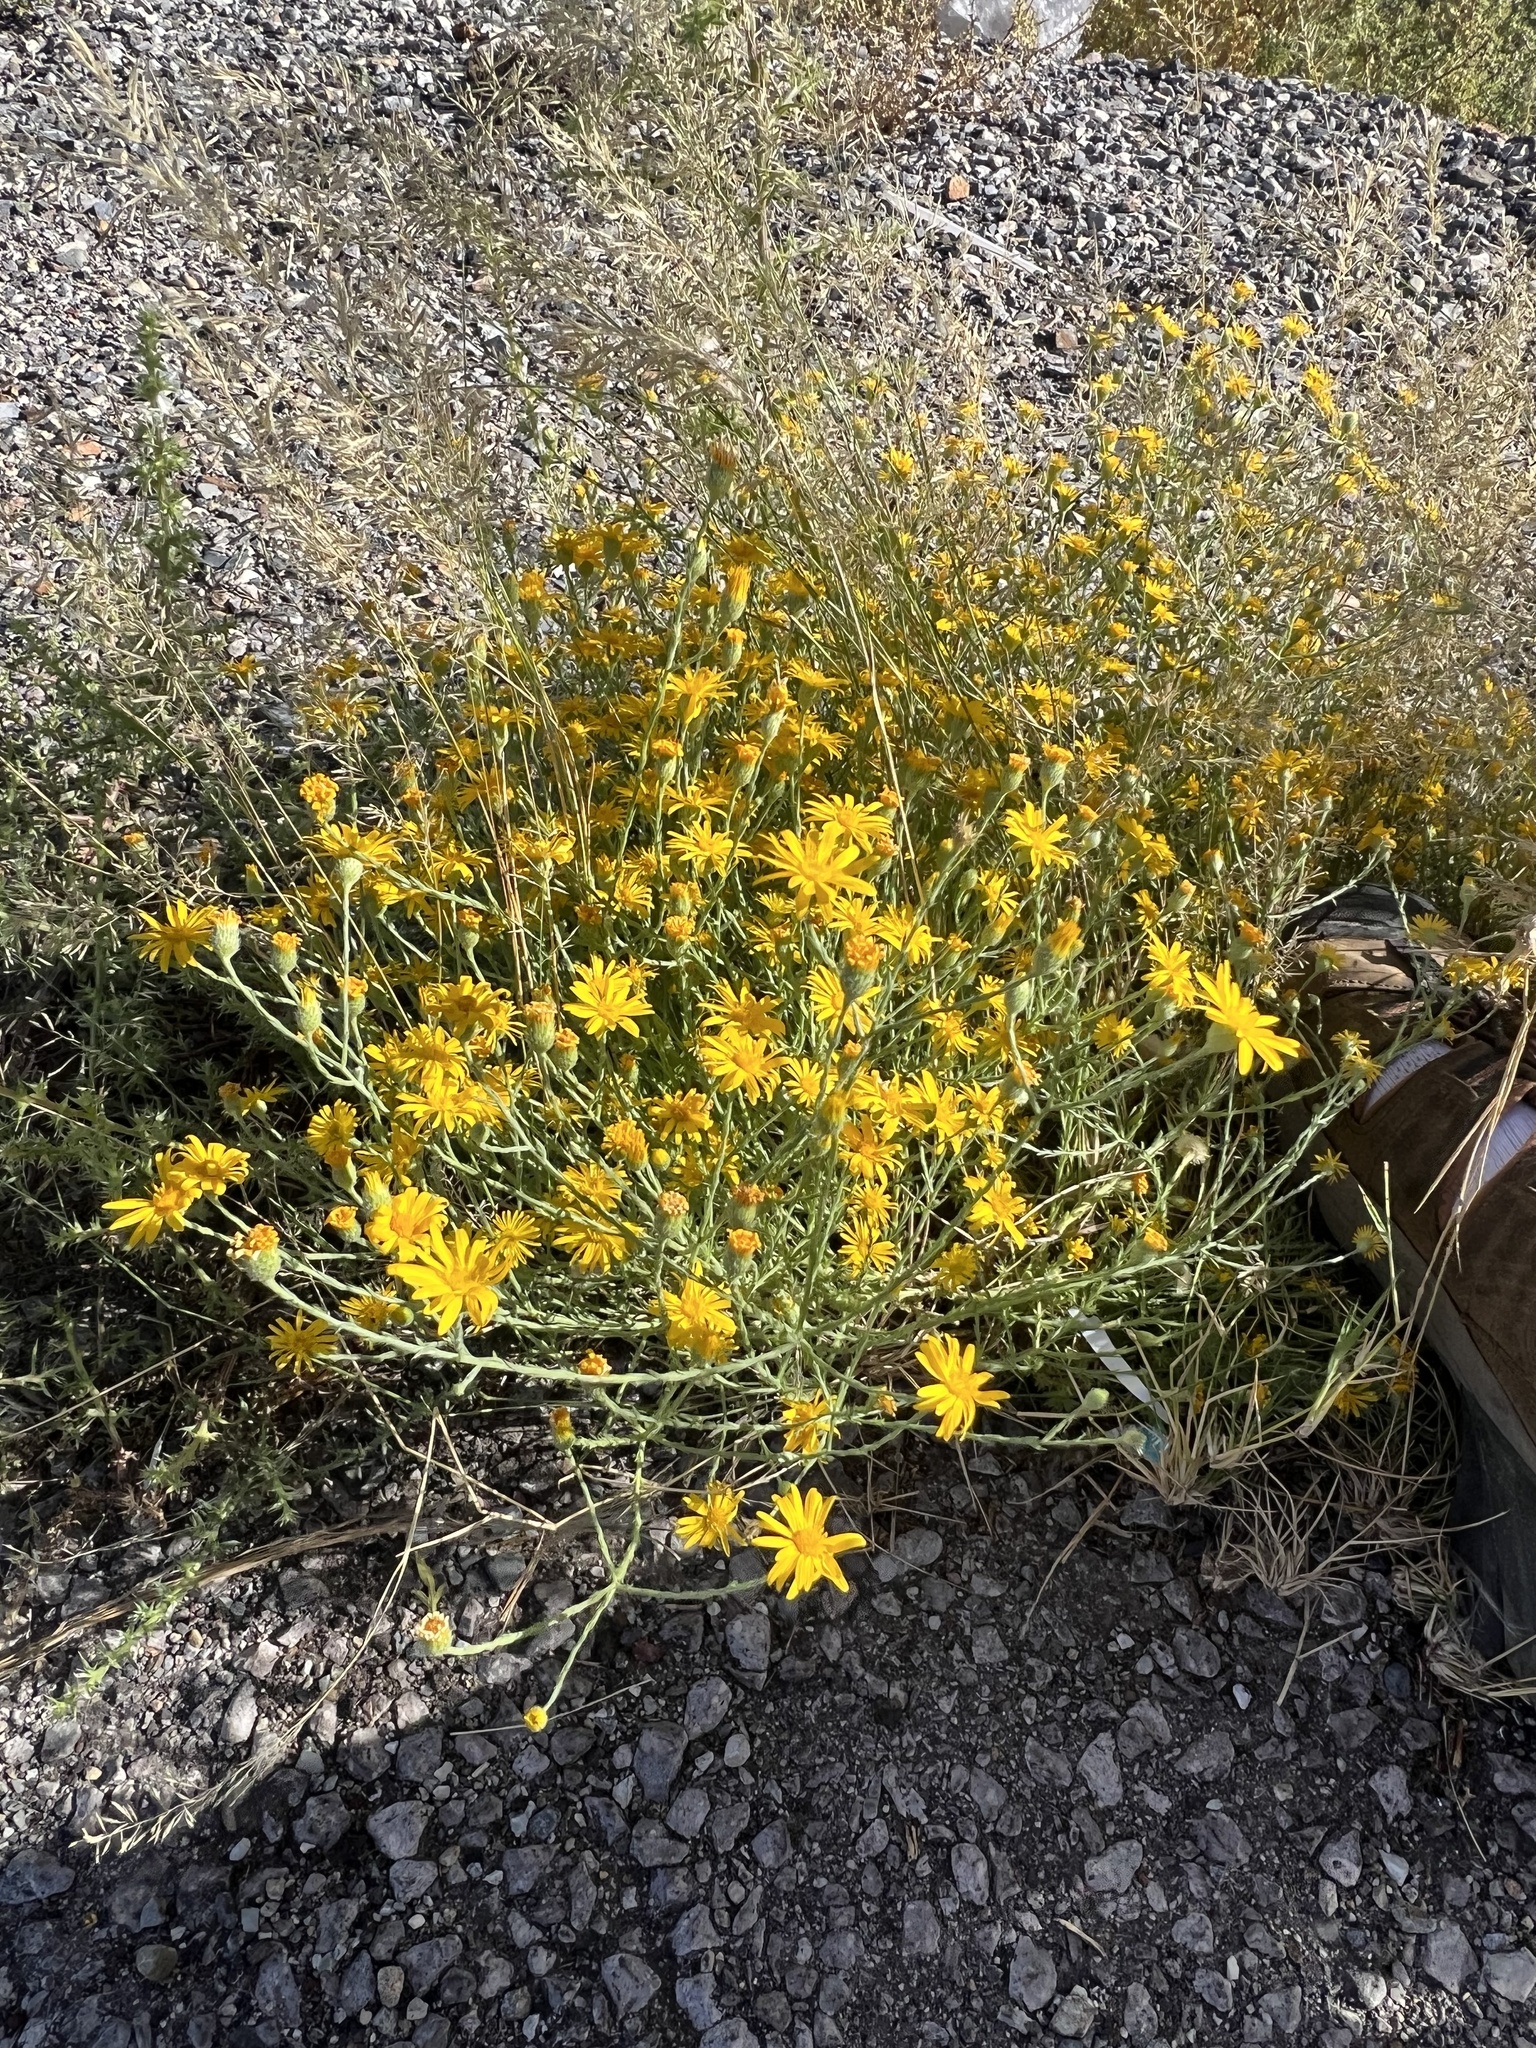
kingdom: Plantae
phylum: Tracheophyta
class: Magnoliopsida
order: Asterales
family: Asteraceae
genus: Xanthisma
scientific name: Xanthisma spinulosum
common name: Spiny goldenweed
